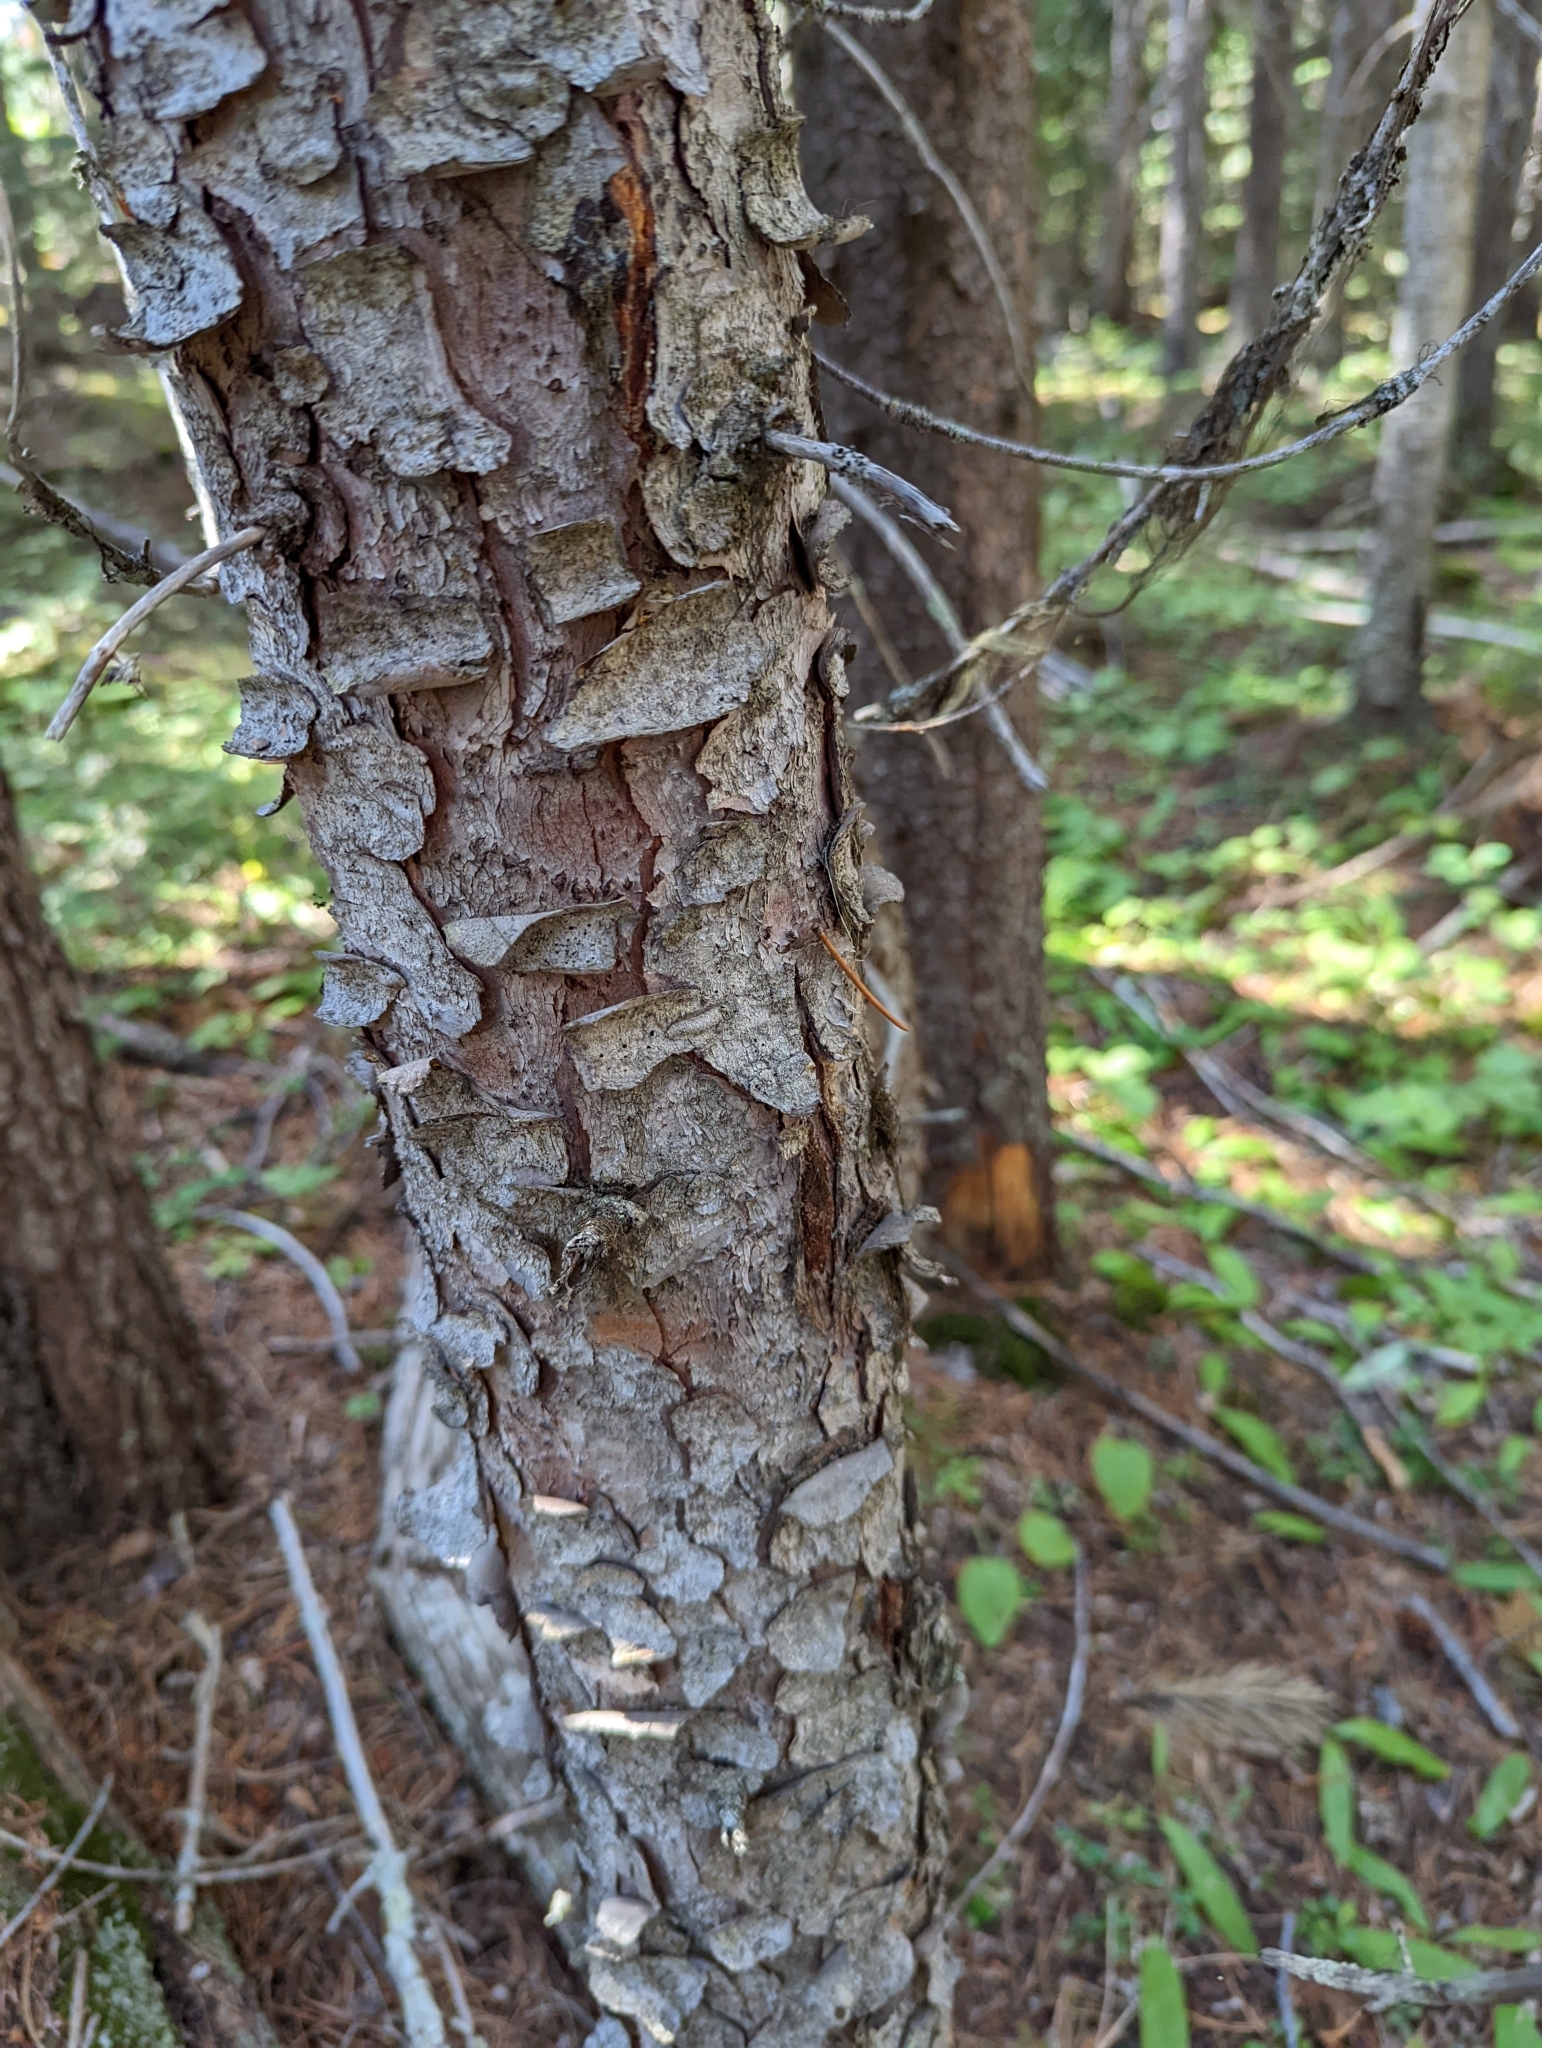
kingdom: Plantae
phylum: Tracheophyta
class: Pinopsida
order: Pinales
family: Pinaceae
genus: Picea
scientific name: Picea engelmannii
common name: Engelmann spruce
